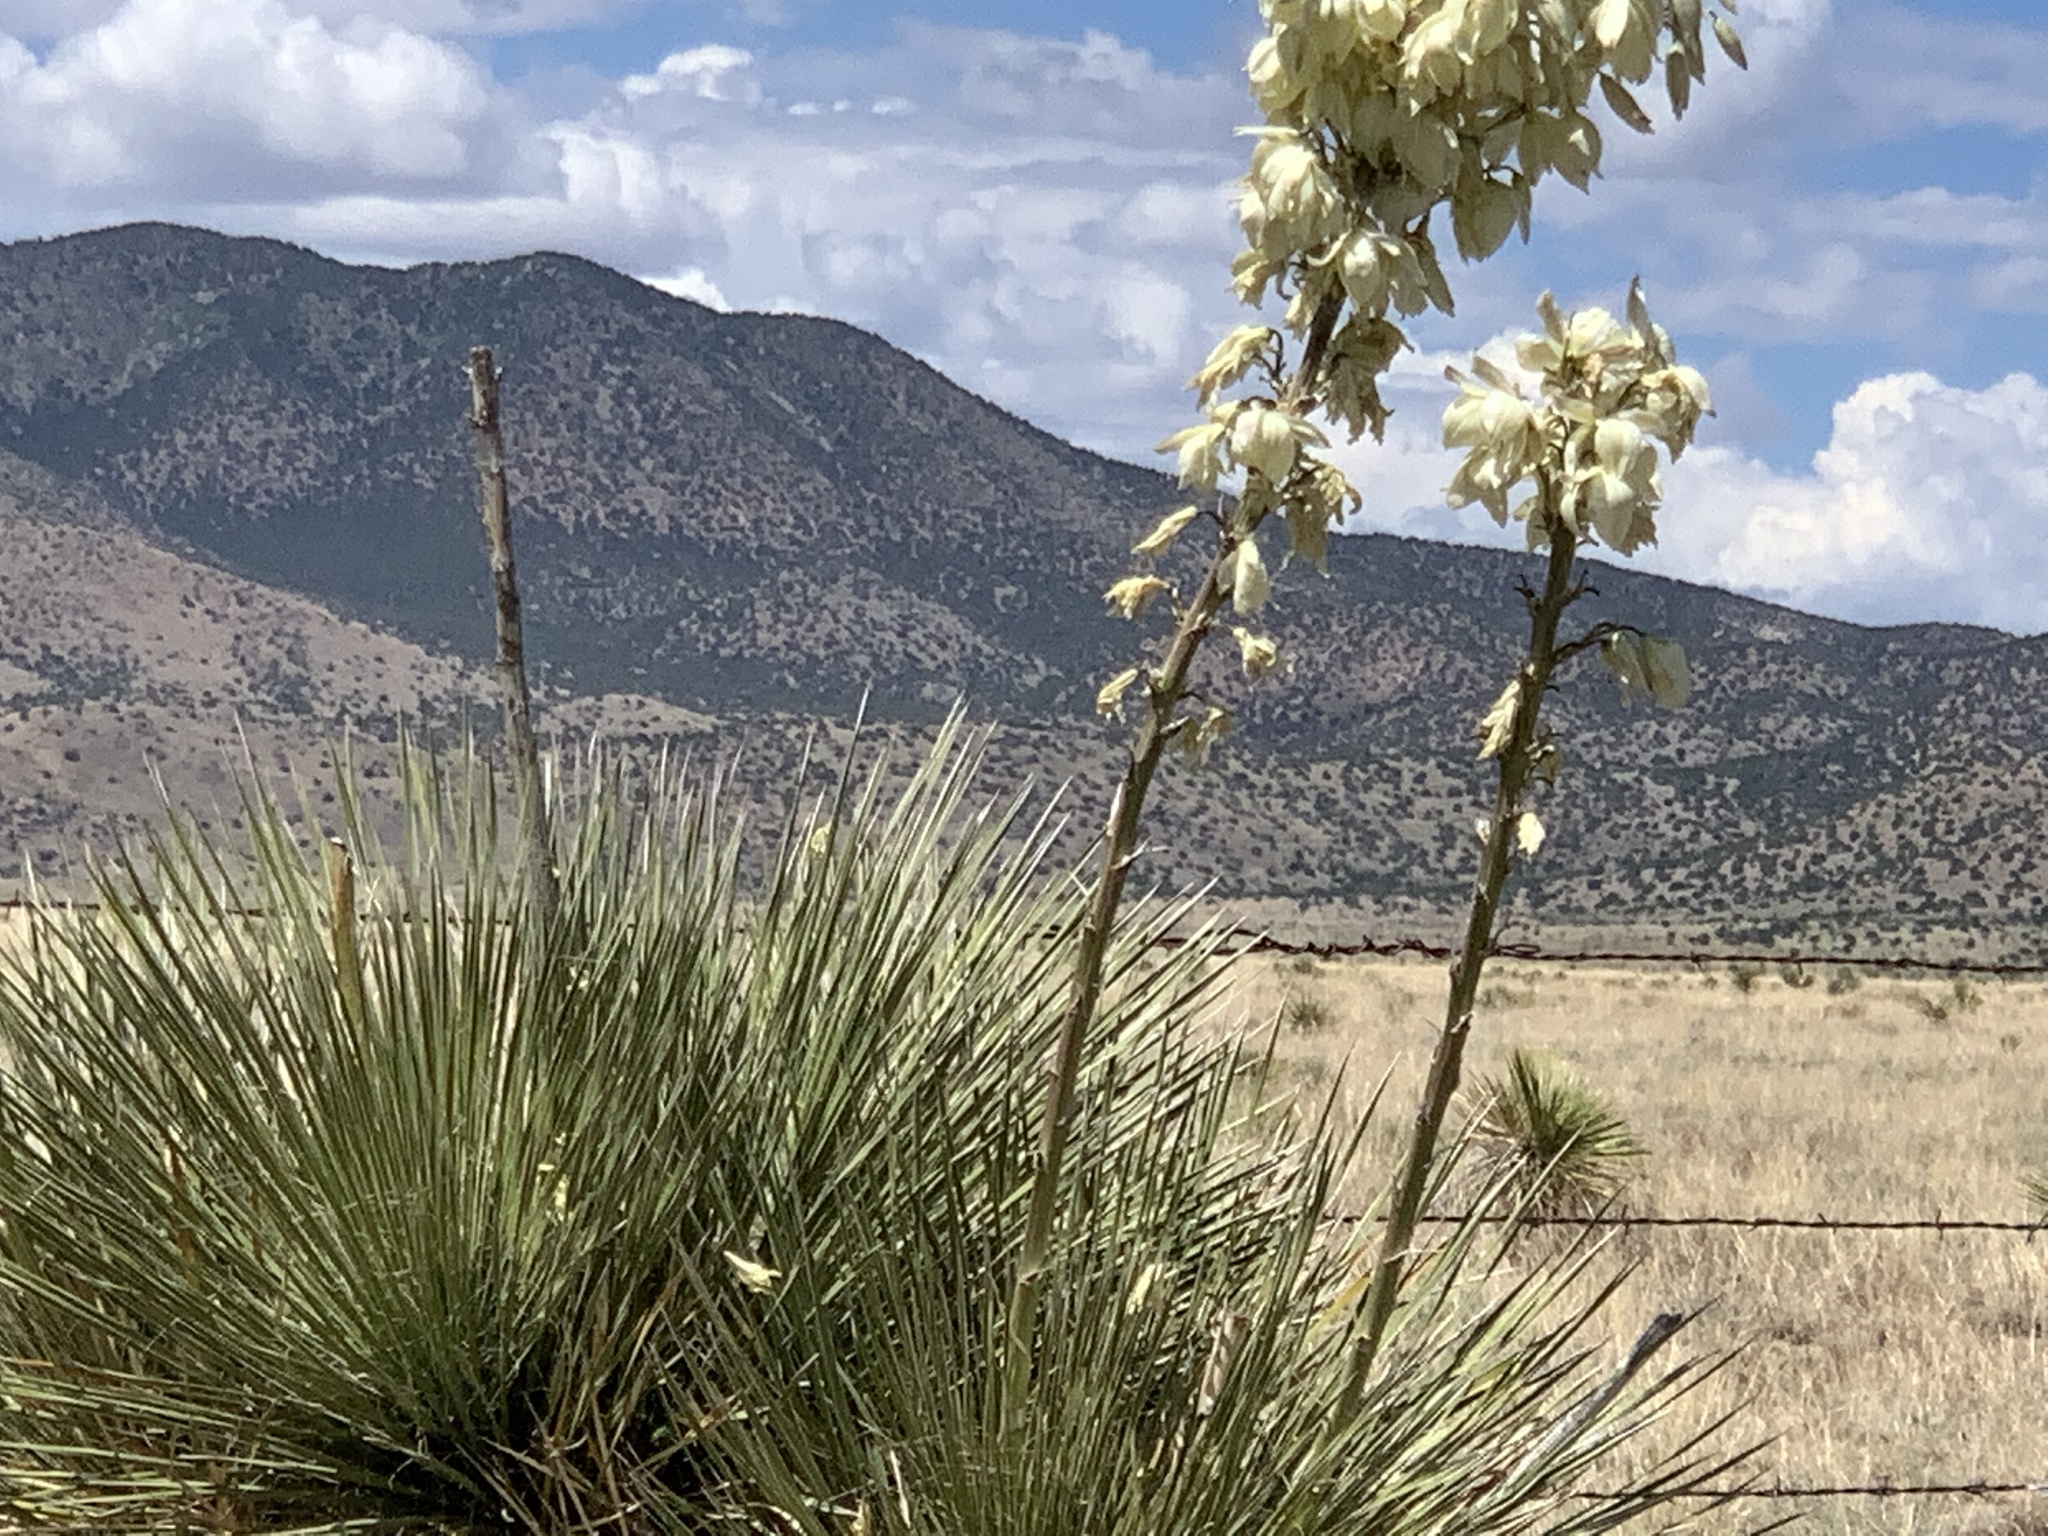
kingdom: Plantae
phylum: Tracheophyta
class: Liliopsida
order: Asparagales
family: Asparagaceae
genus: Yucca
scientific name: Yucca elata
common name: Palmella
